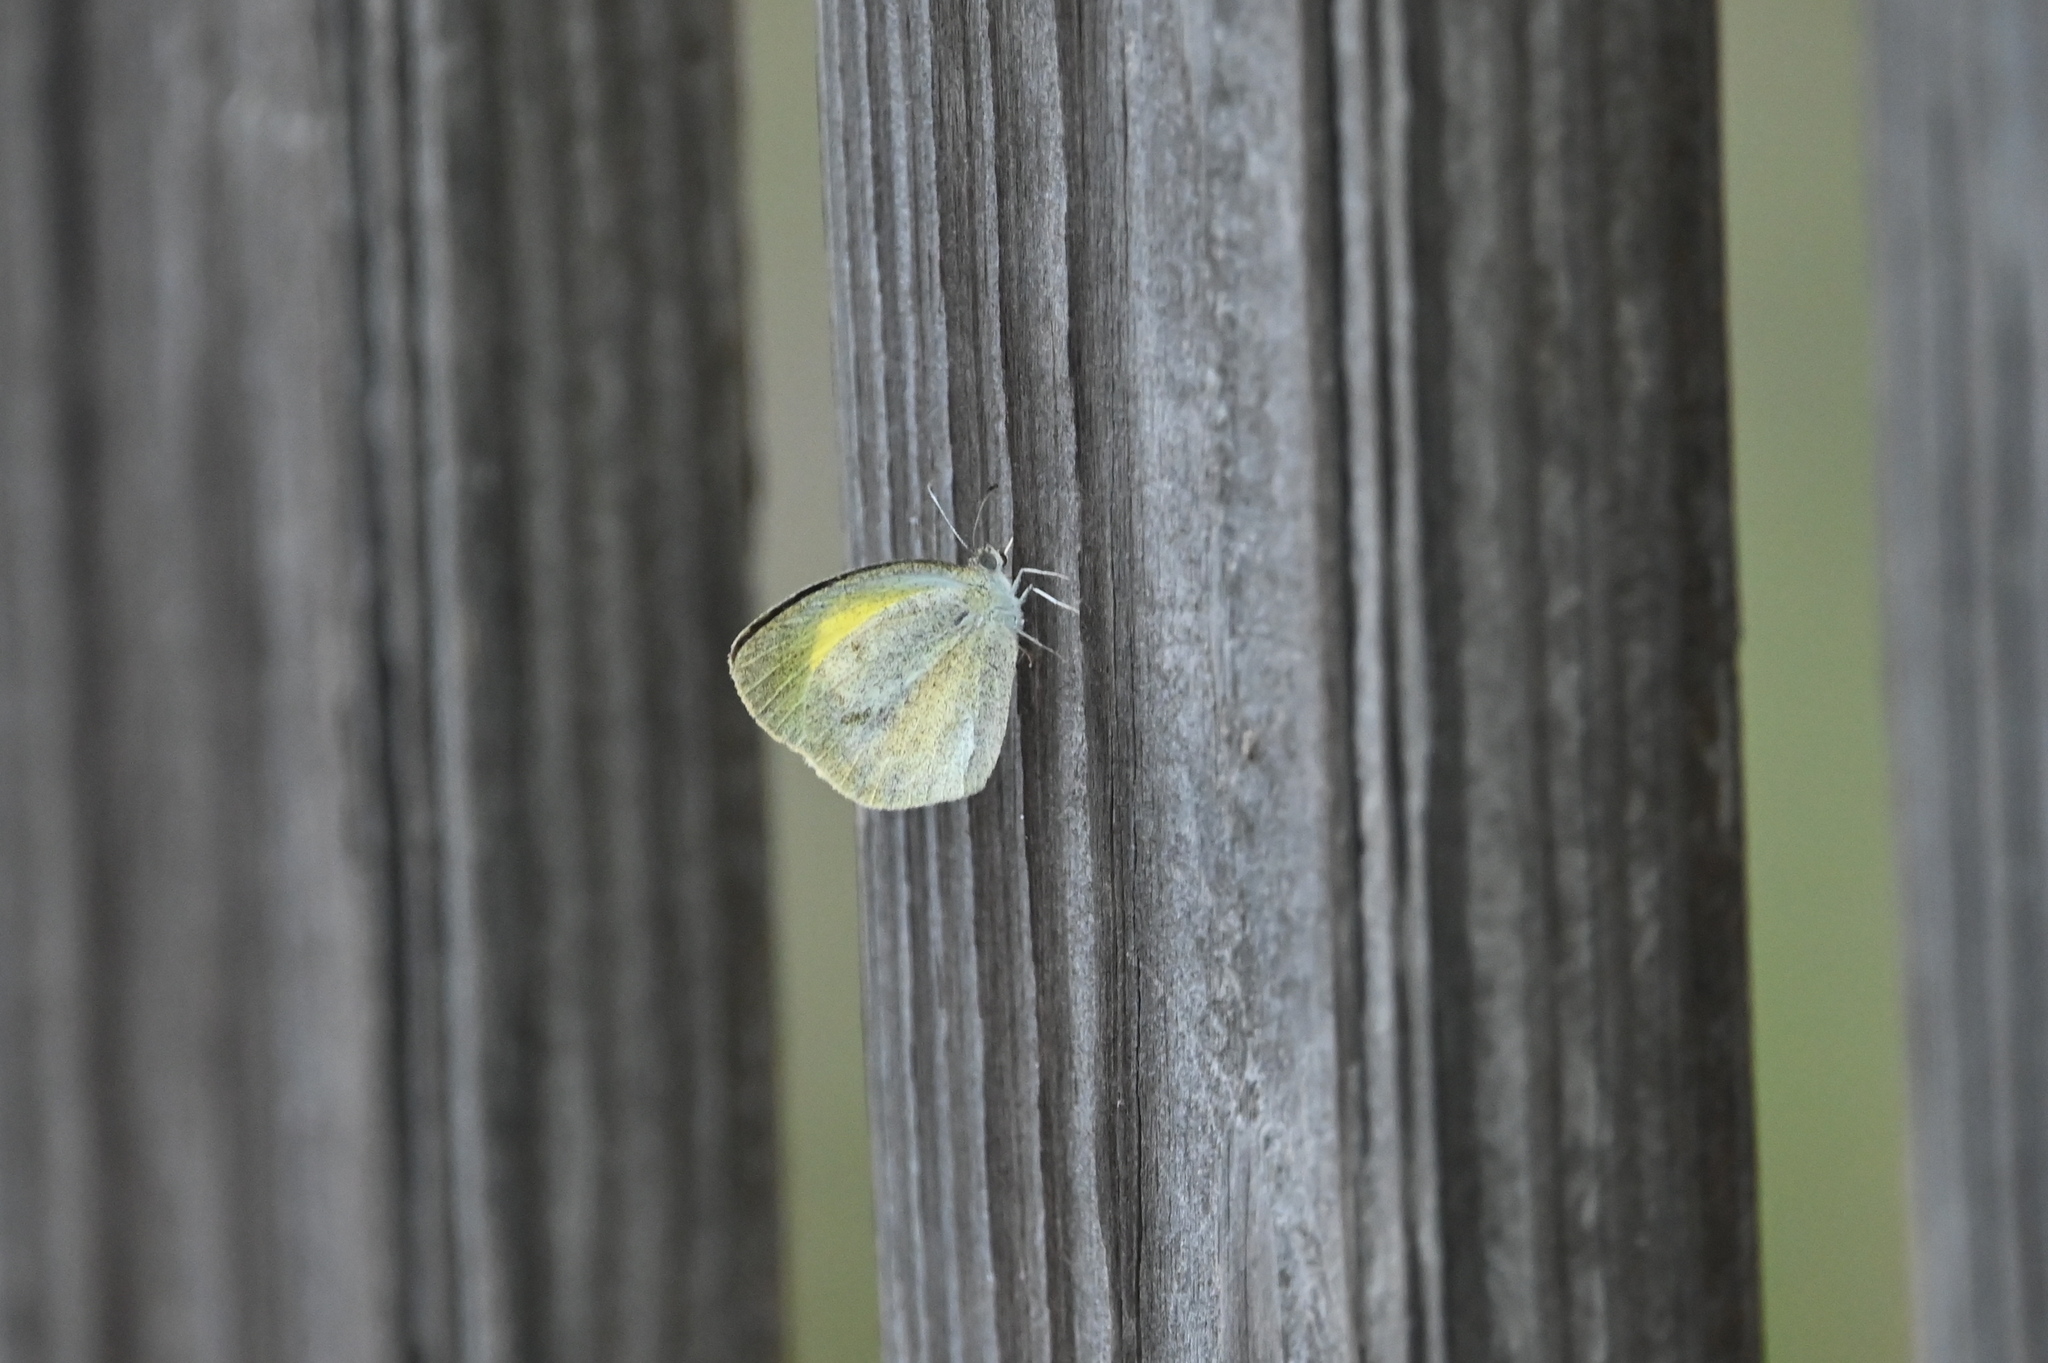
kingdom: Animalia
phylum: Arthropoda
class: Insecta
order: Lepidoptera
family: Pieridae
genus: Eurema
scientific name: Eurema daira
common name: Barred sulphur
